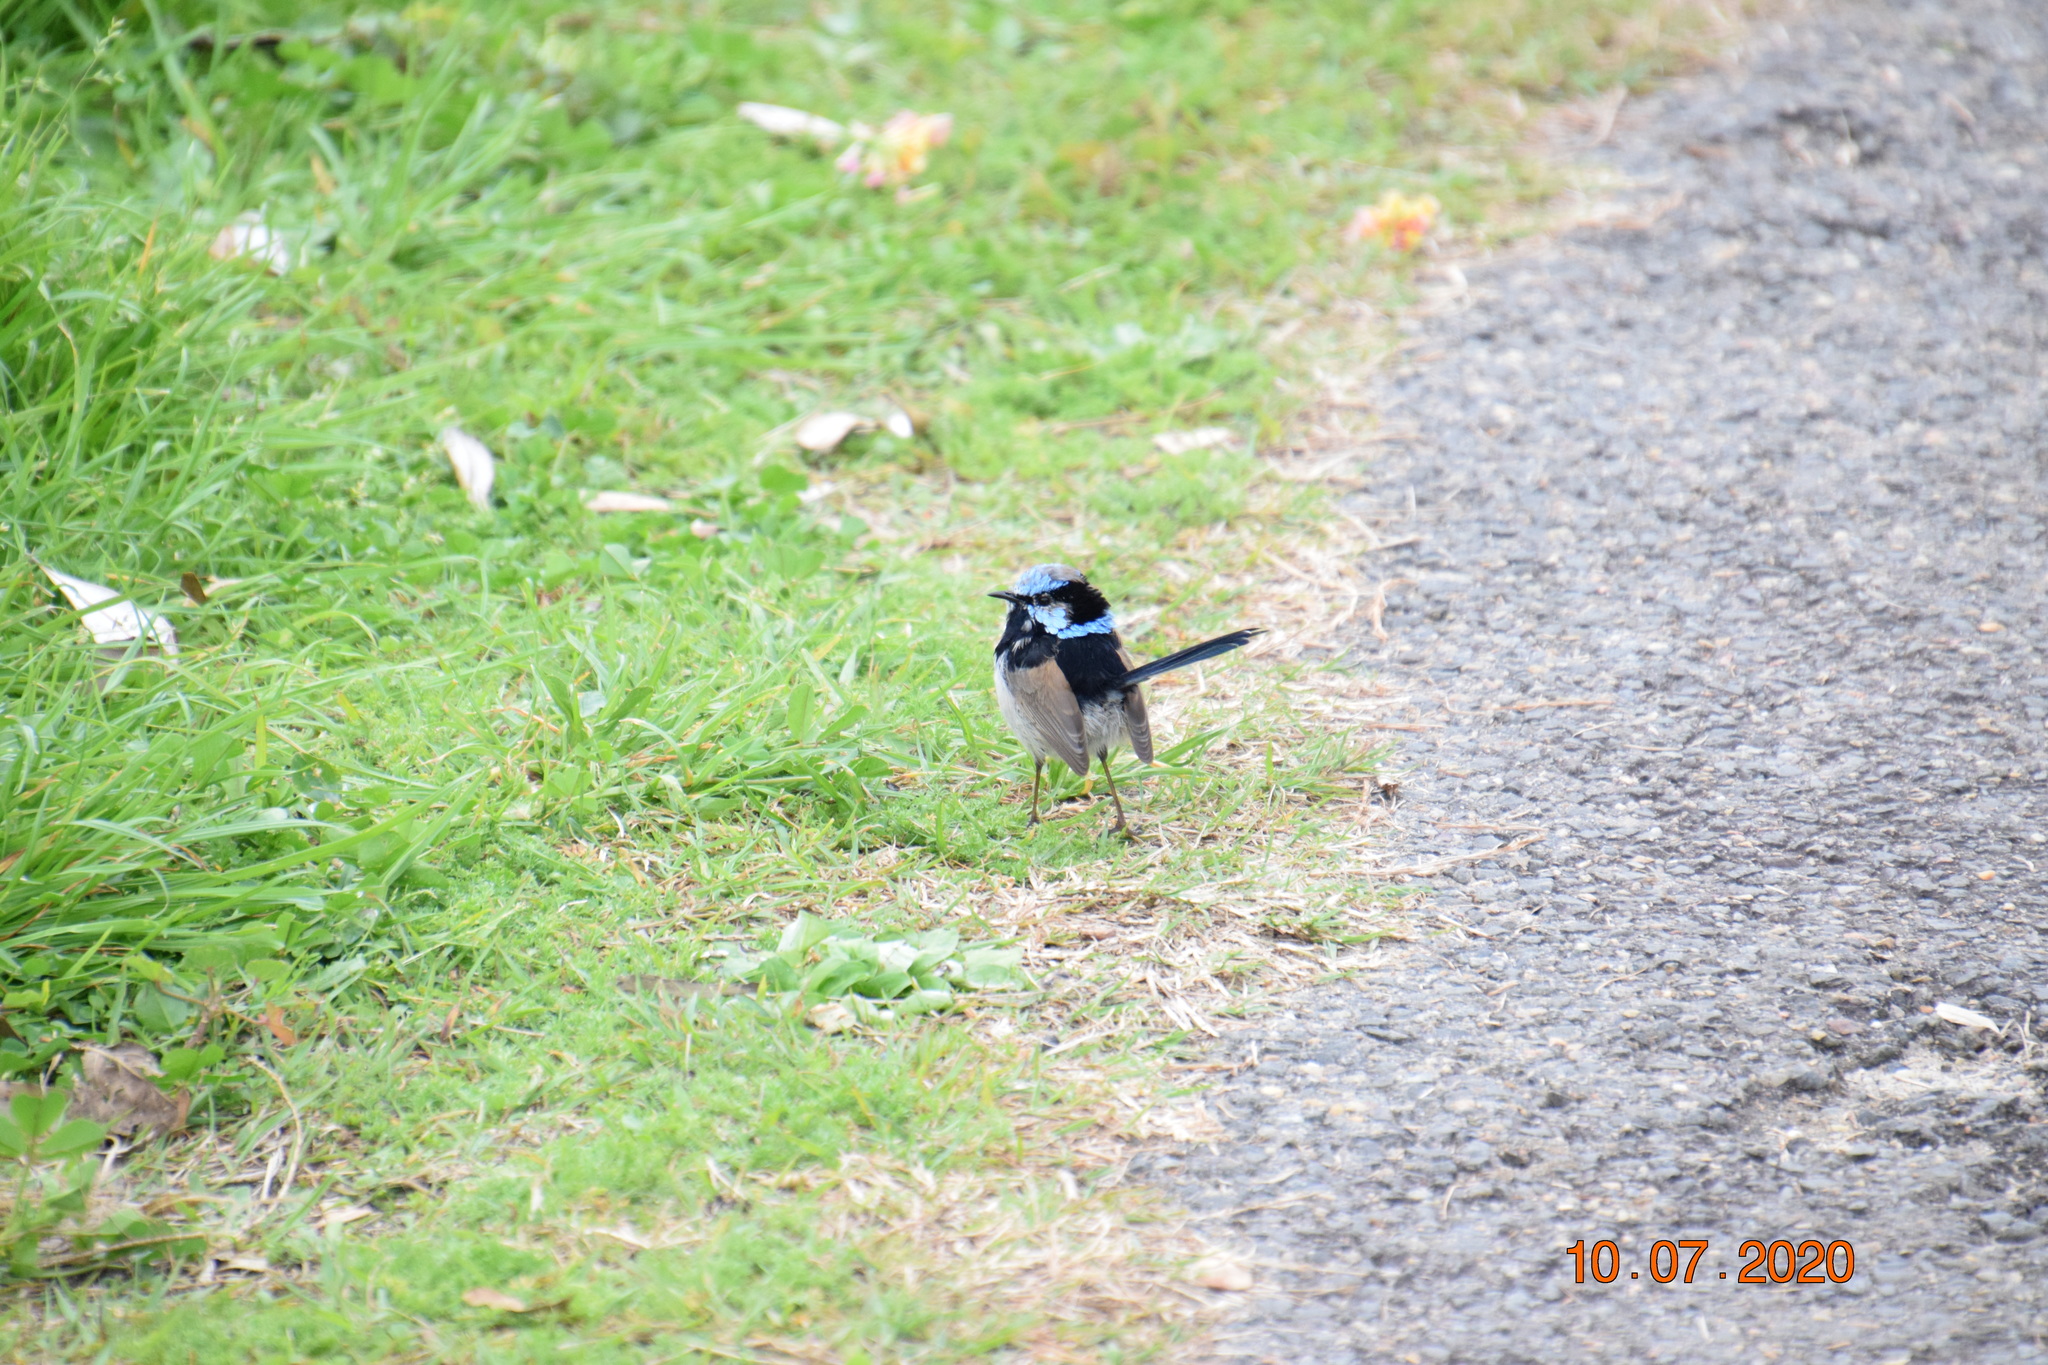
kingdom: Animalia
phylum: Chordata
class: Aves
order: Passeriformes
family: Maluridae
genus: Malurus
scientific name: Malurus cyaneus
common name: Superb fairywren
